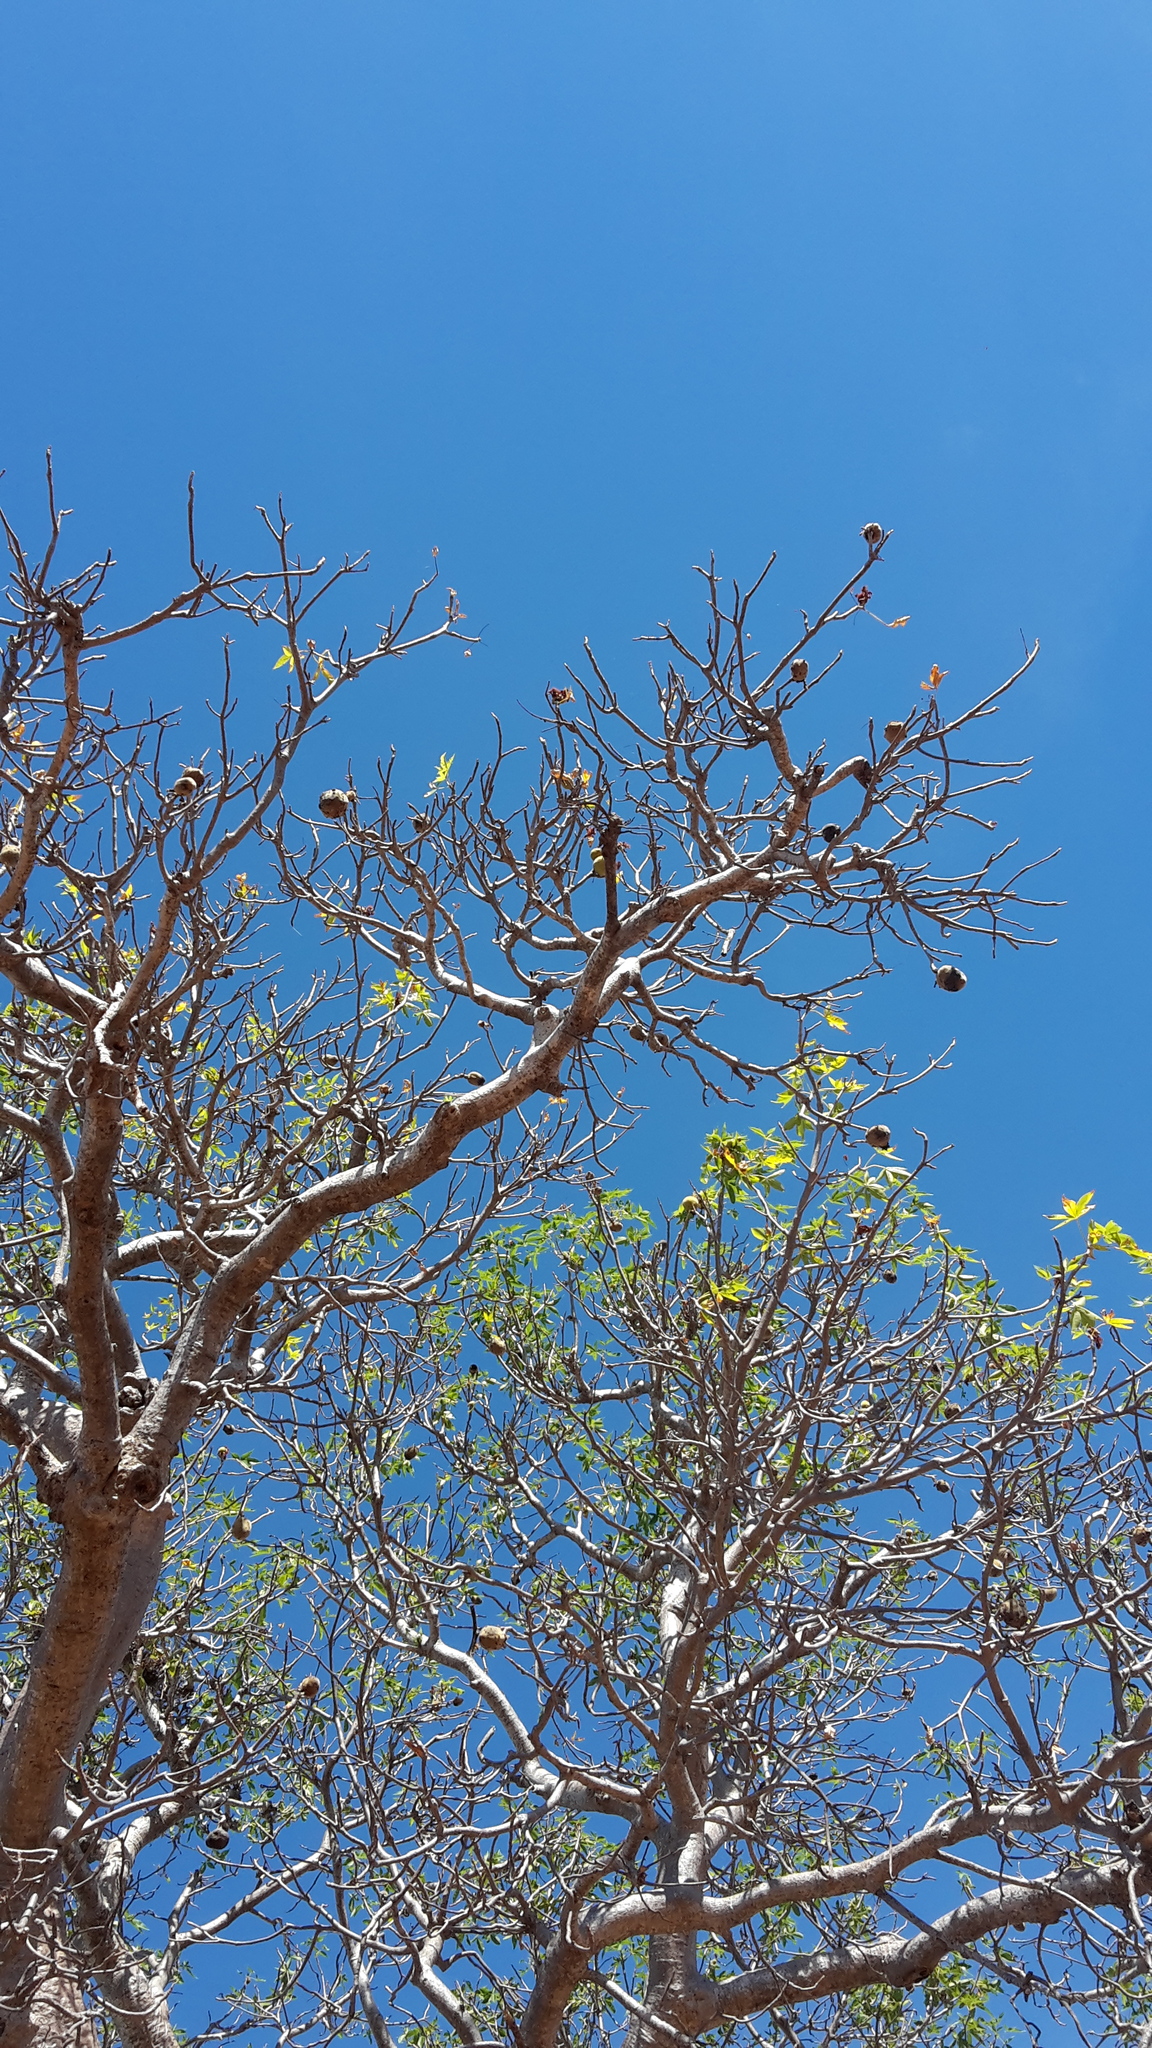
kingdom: Plantae
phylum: Tracheophyta
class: Magnoliopsida
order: Malvales
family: Malvaceae
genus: Adansonia
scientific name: Adansonia gregorii
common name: Australian baobab
